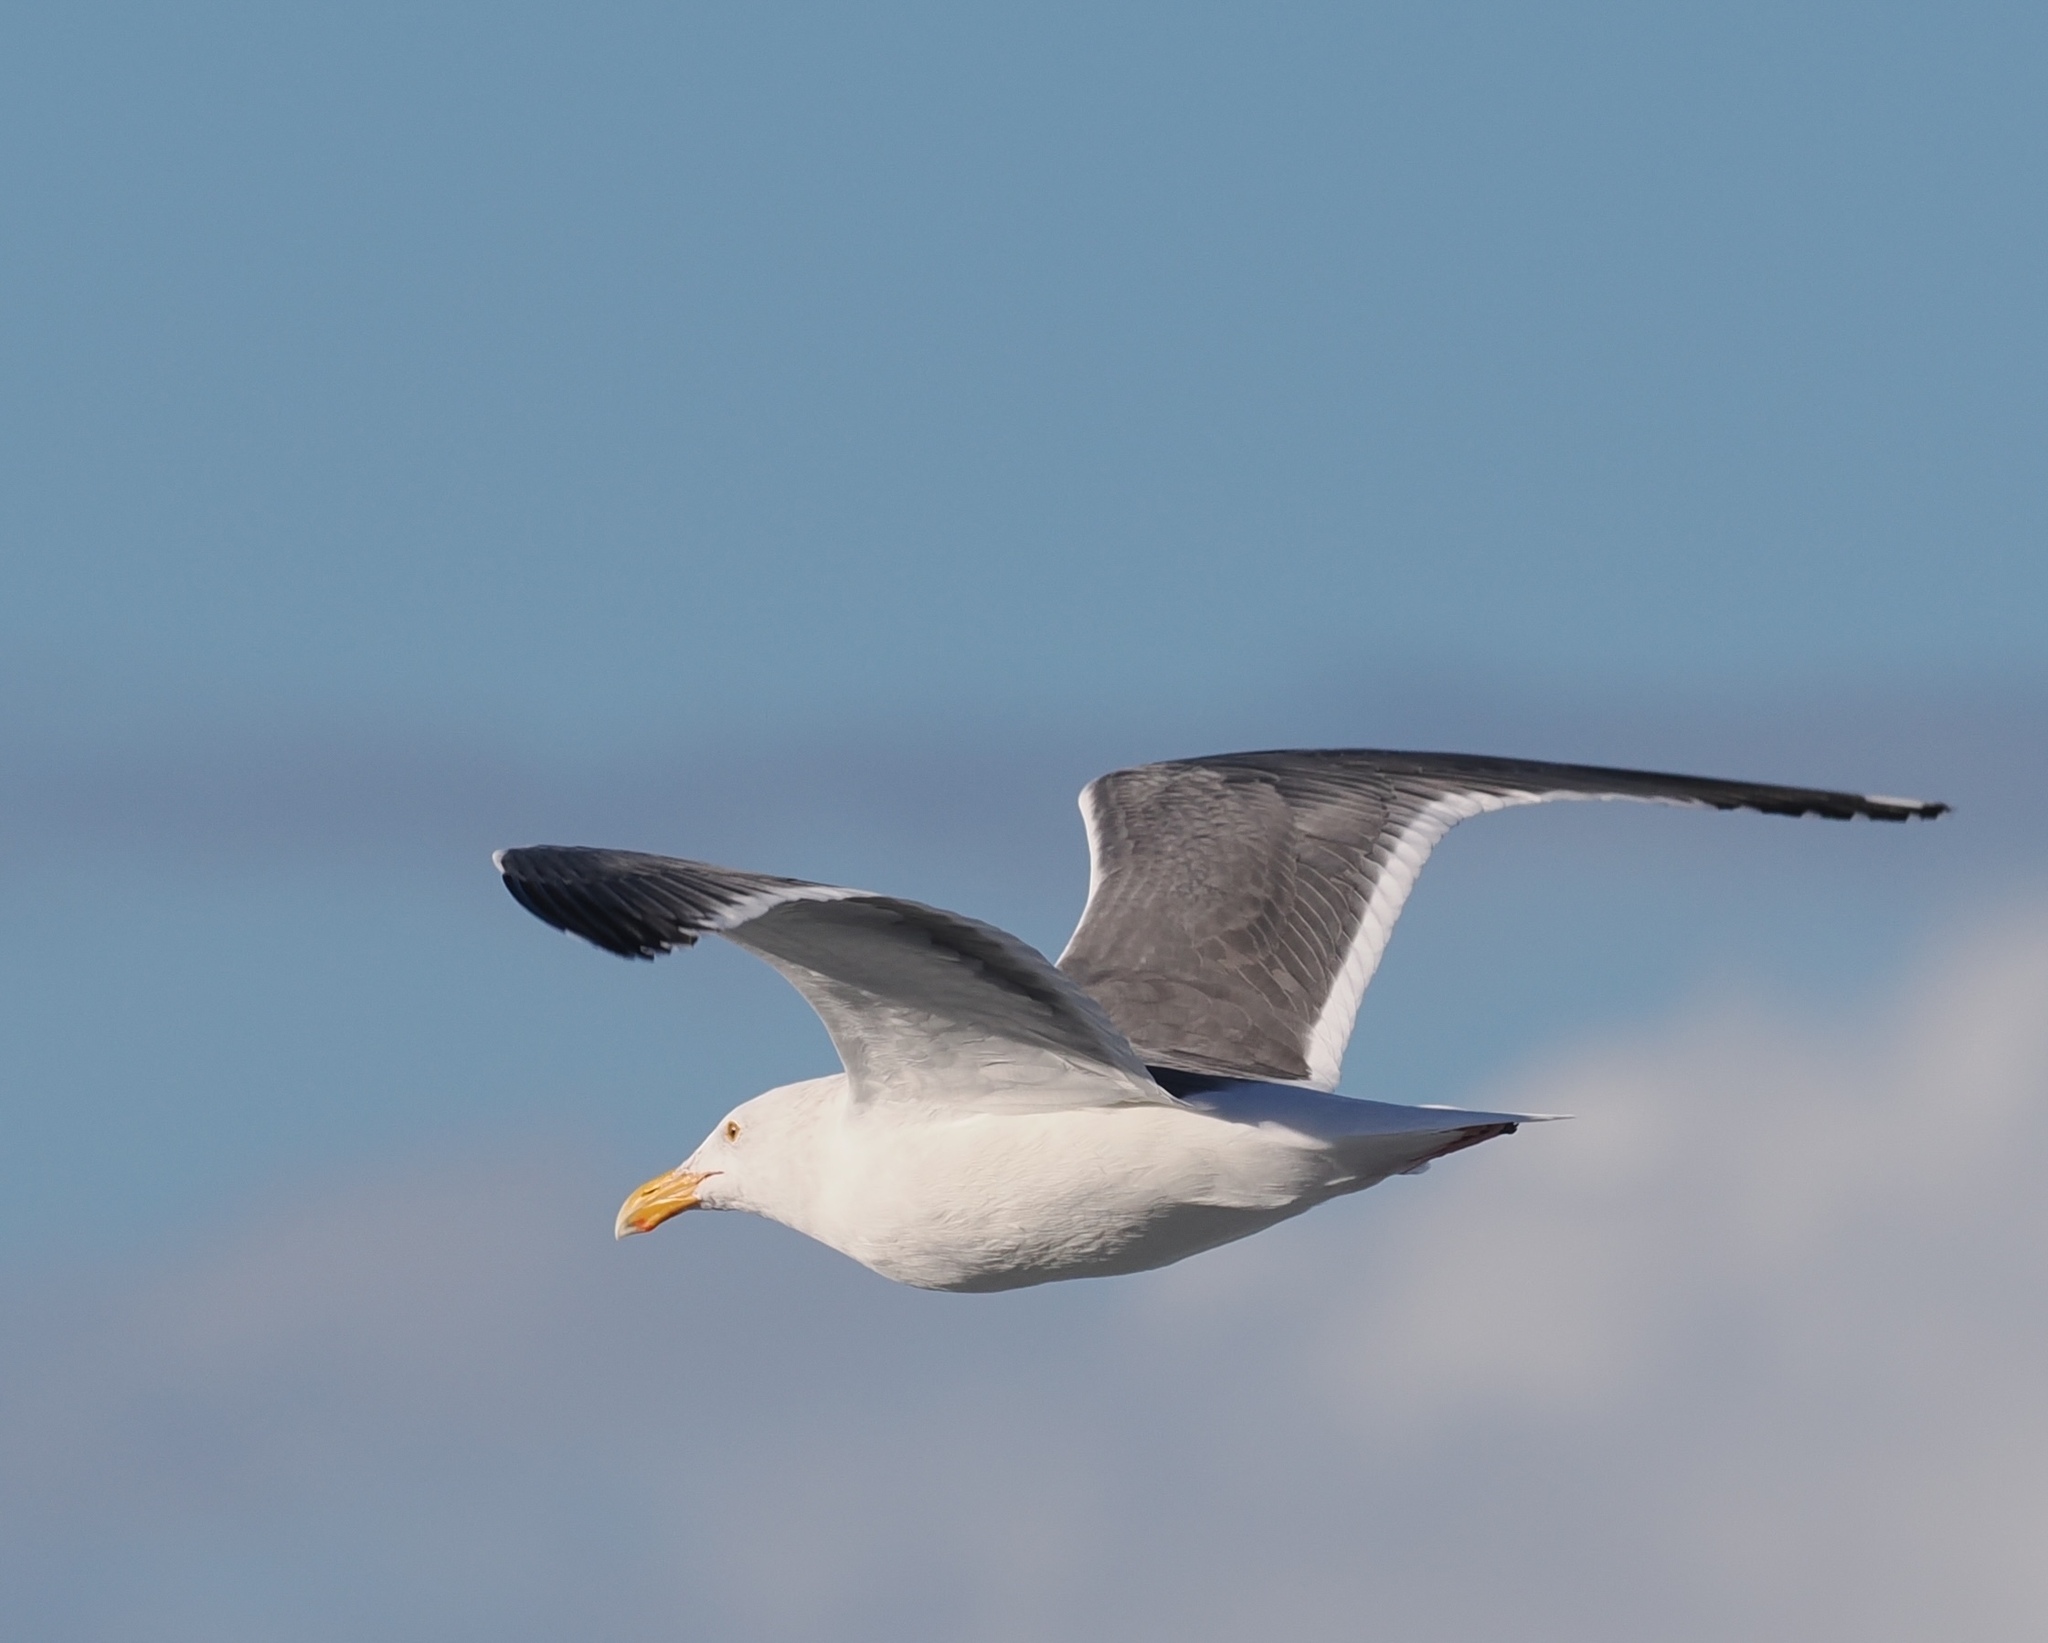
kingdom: Animalia
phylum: Chordata
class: Aves
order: Charadriiformes
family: Laridae
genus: Larus
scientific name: Larus occidentalis
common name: Western gull
